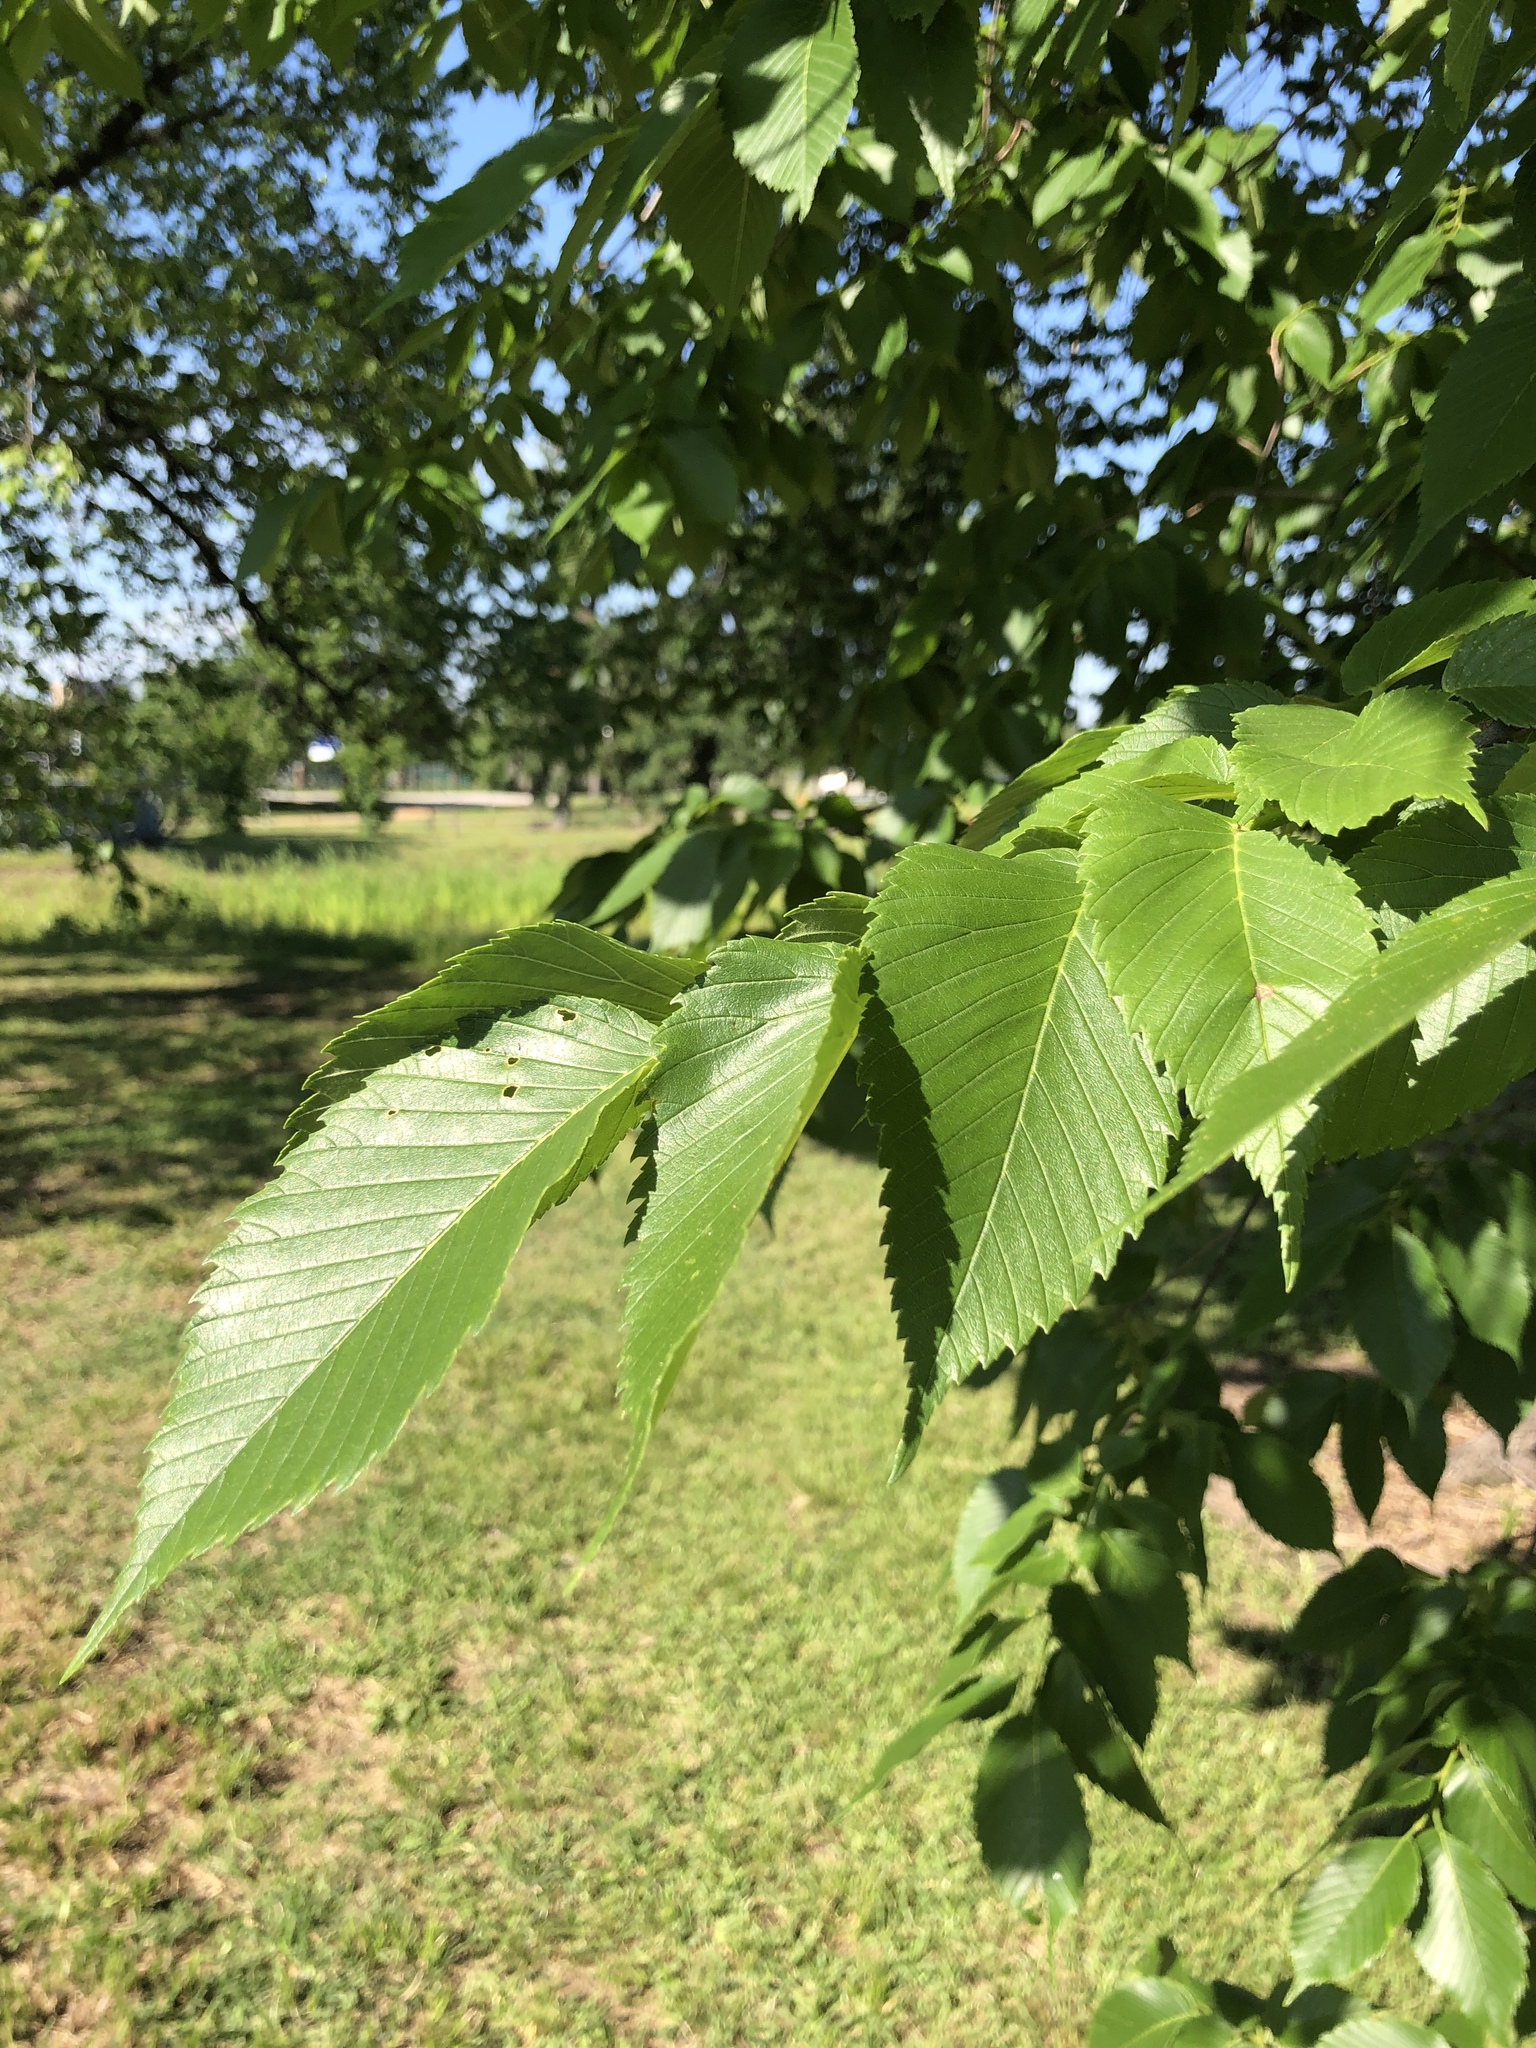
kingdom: Plantae
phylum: Tracheophyta
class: Magnoliopsida
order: Rosales
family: Ulmaceae
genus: Ulmus
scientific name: Ulmus americana
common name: American elm
